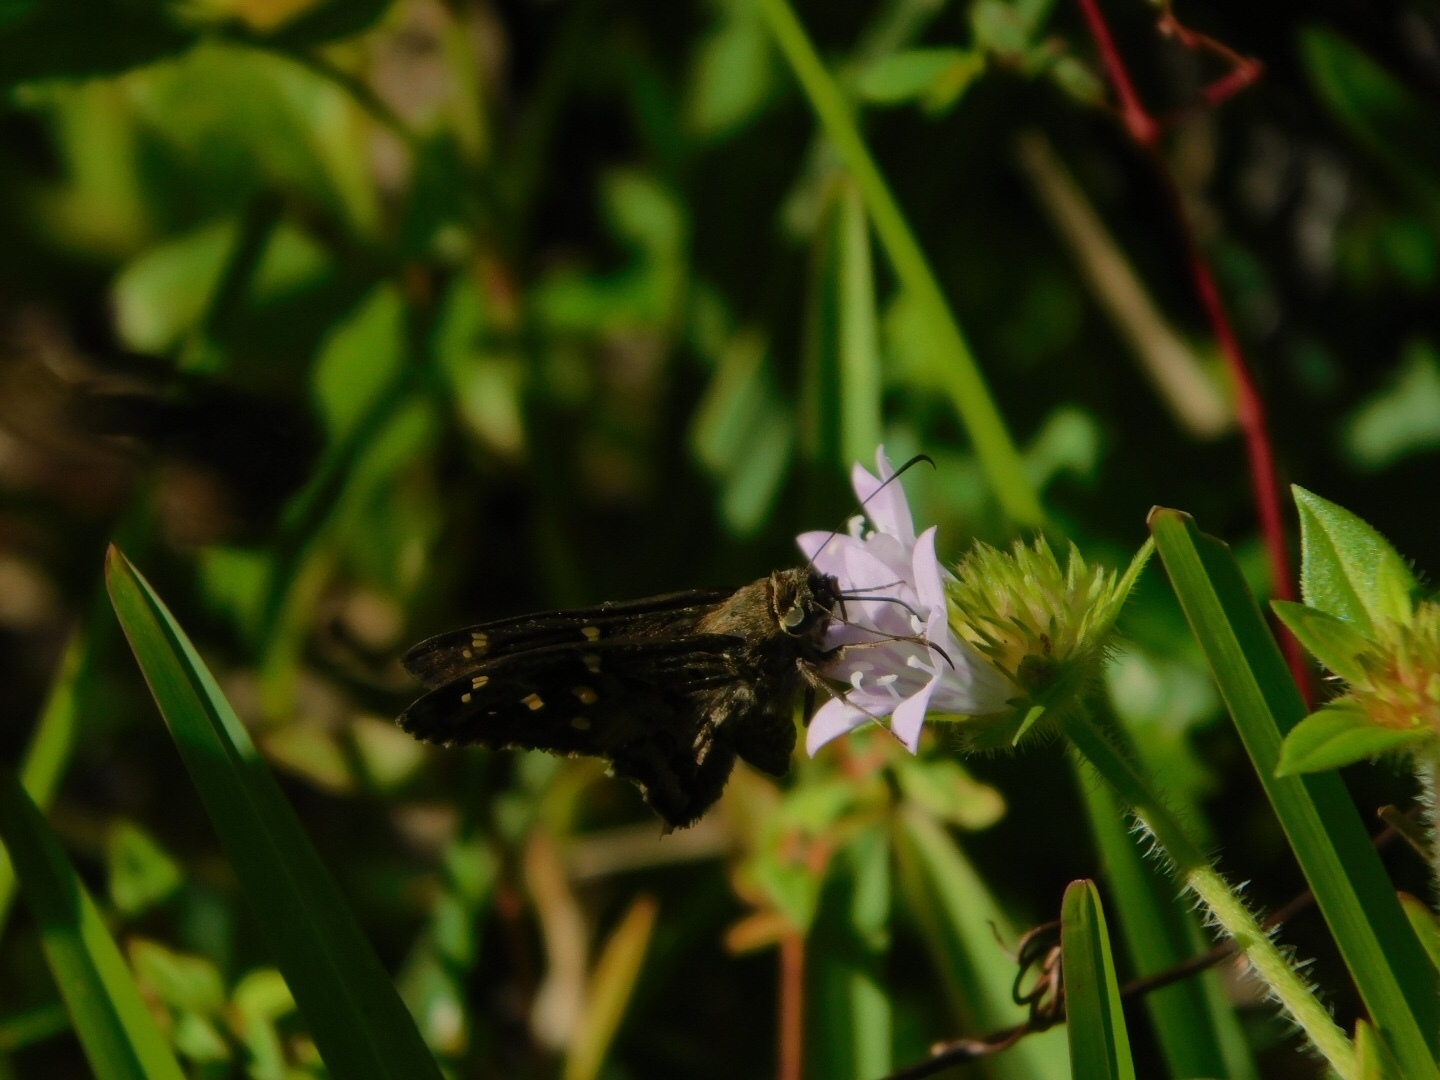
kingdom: Animalia
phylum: Arthropoda
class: Insecta
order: Lepidoptera
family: Hesperiidae
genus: Thorybes
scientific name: Thorybes
